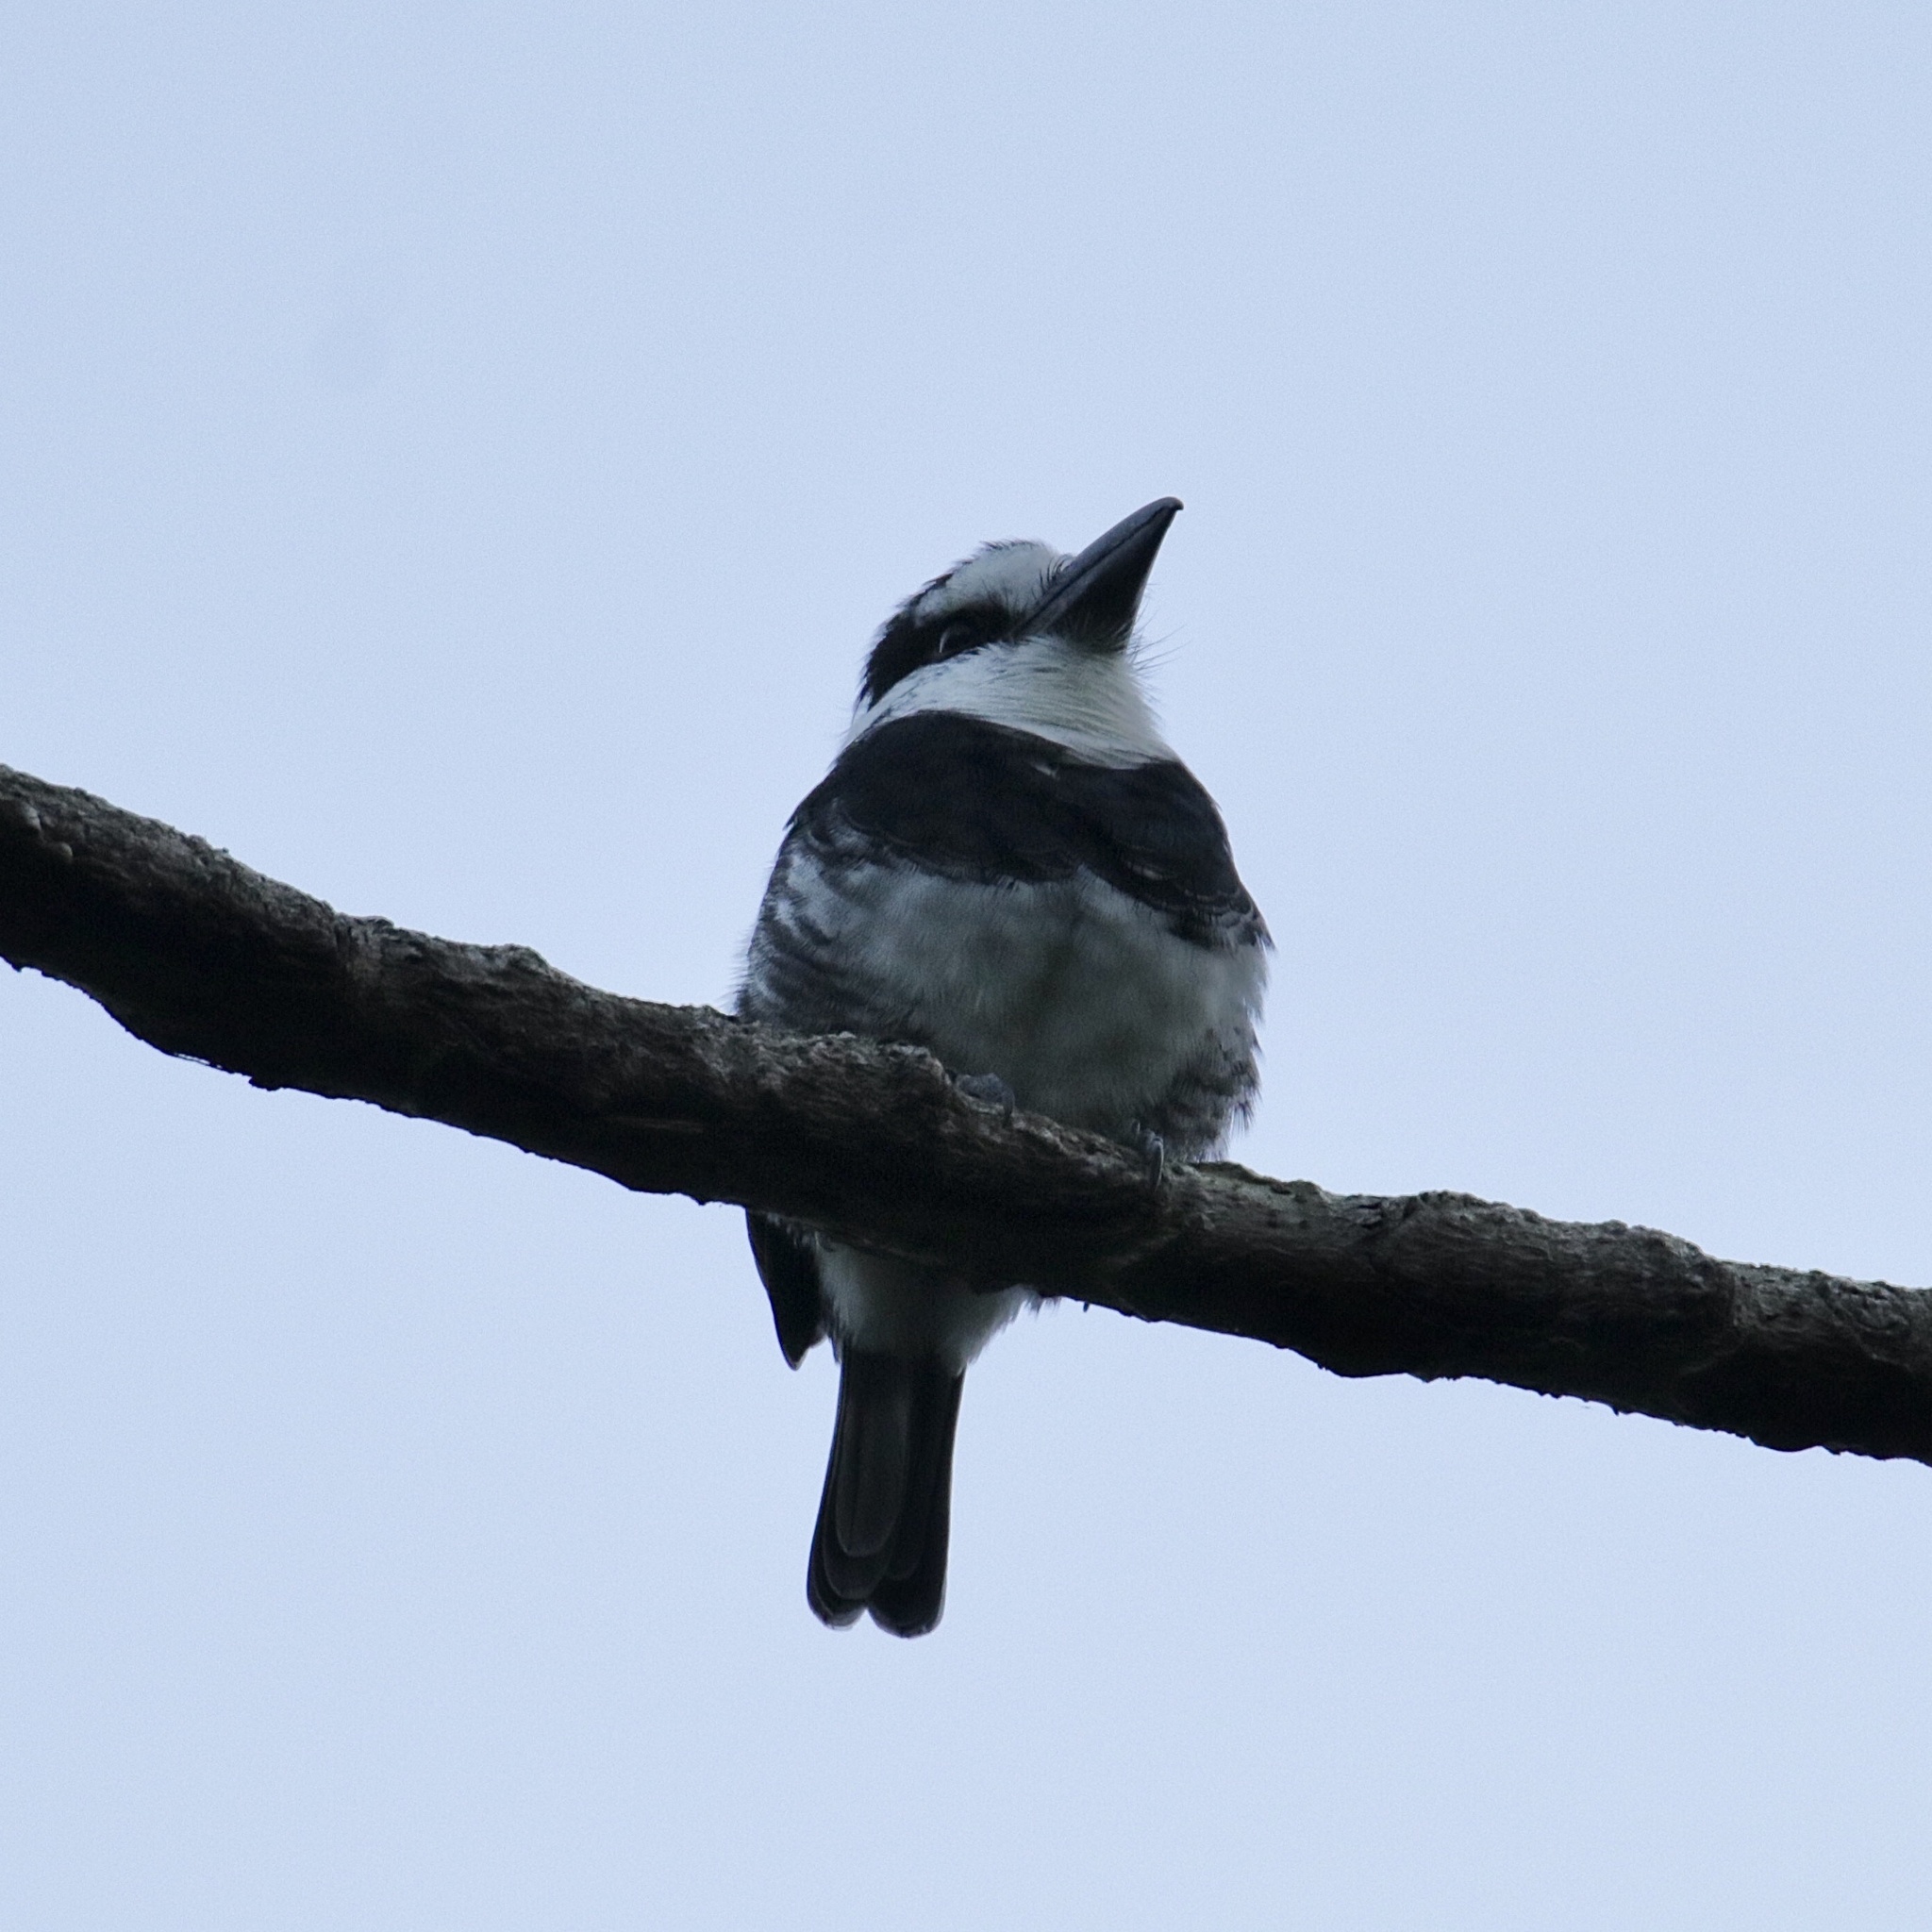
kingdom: Animalia
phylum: Chordata
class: Aves
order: Piciformes
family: Bucconidae
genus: Notharchus
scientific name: Notharchus hyperrhynchus
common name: White-necked puffbird
